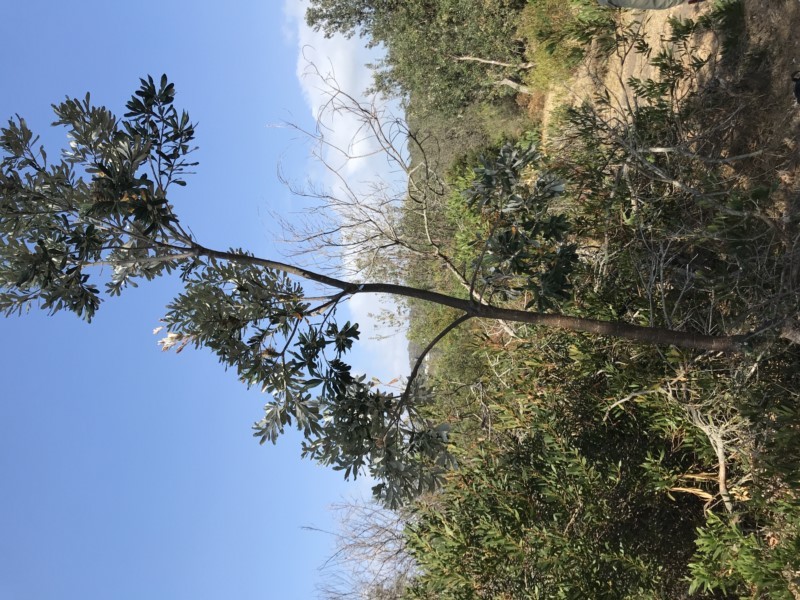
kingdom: Plantae
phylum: Tracheophyta
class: Magnoliopsida
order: Proteales
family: Proteaceae
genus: Banksia
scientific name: Banksia integrifolia
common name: White-honeysuckle
